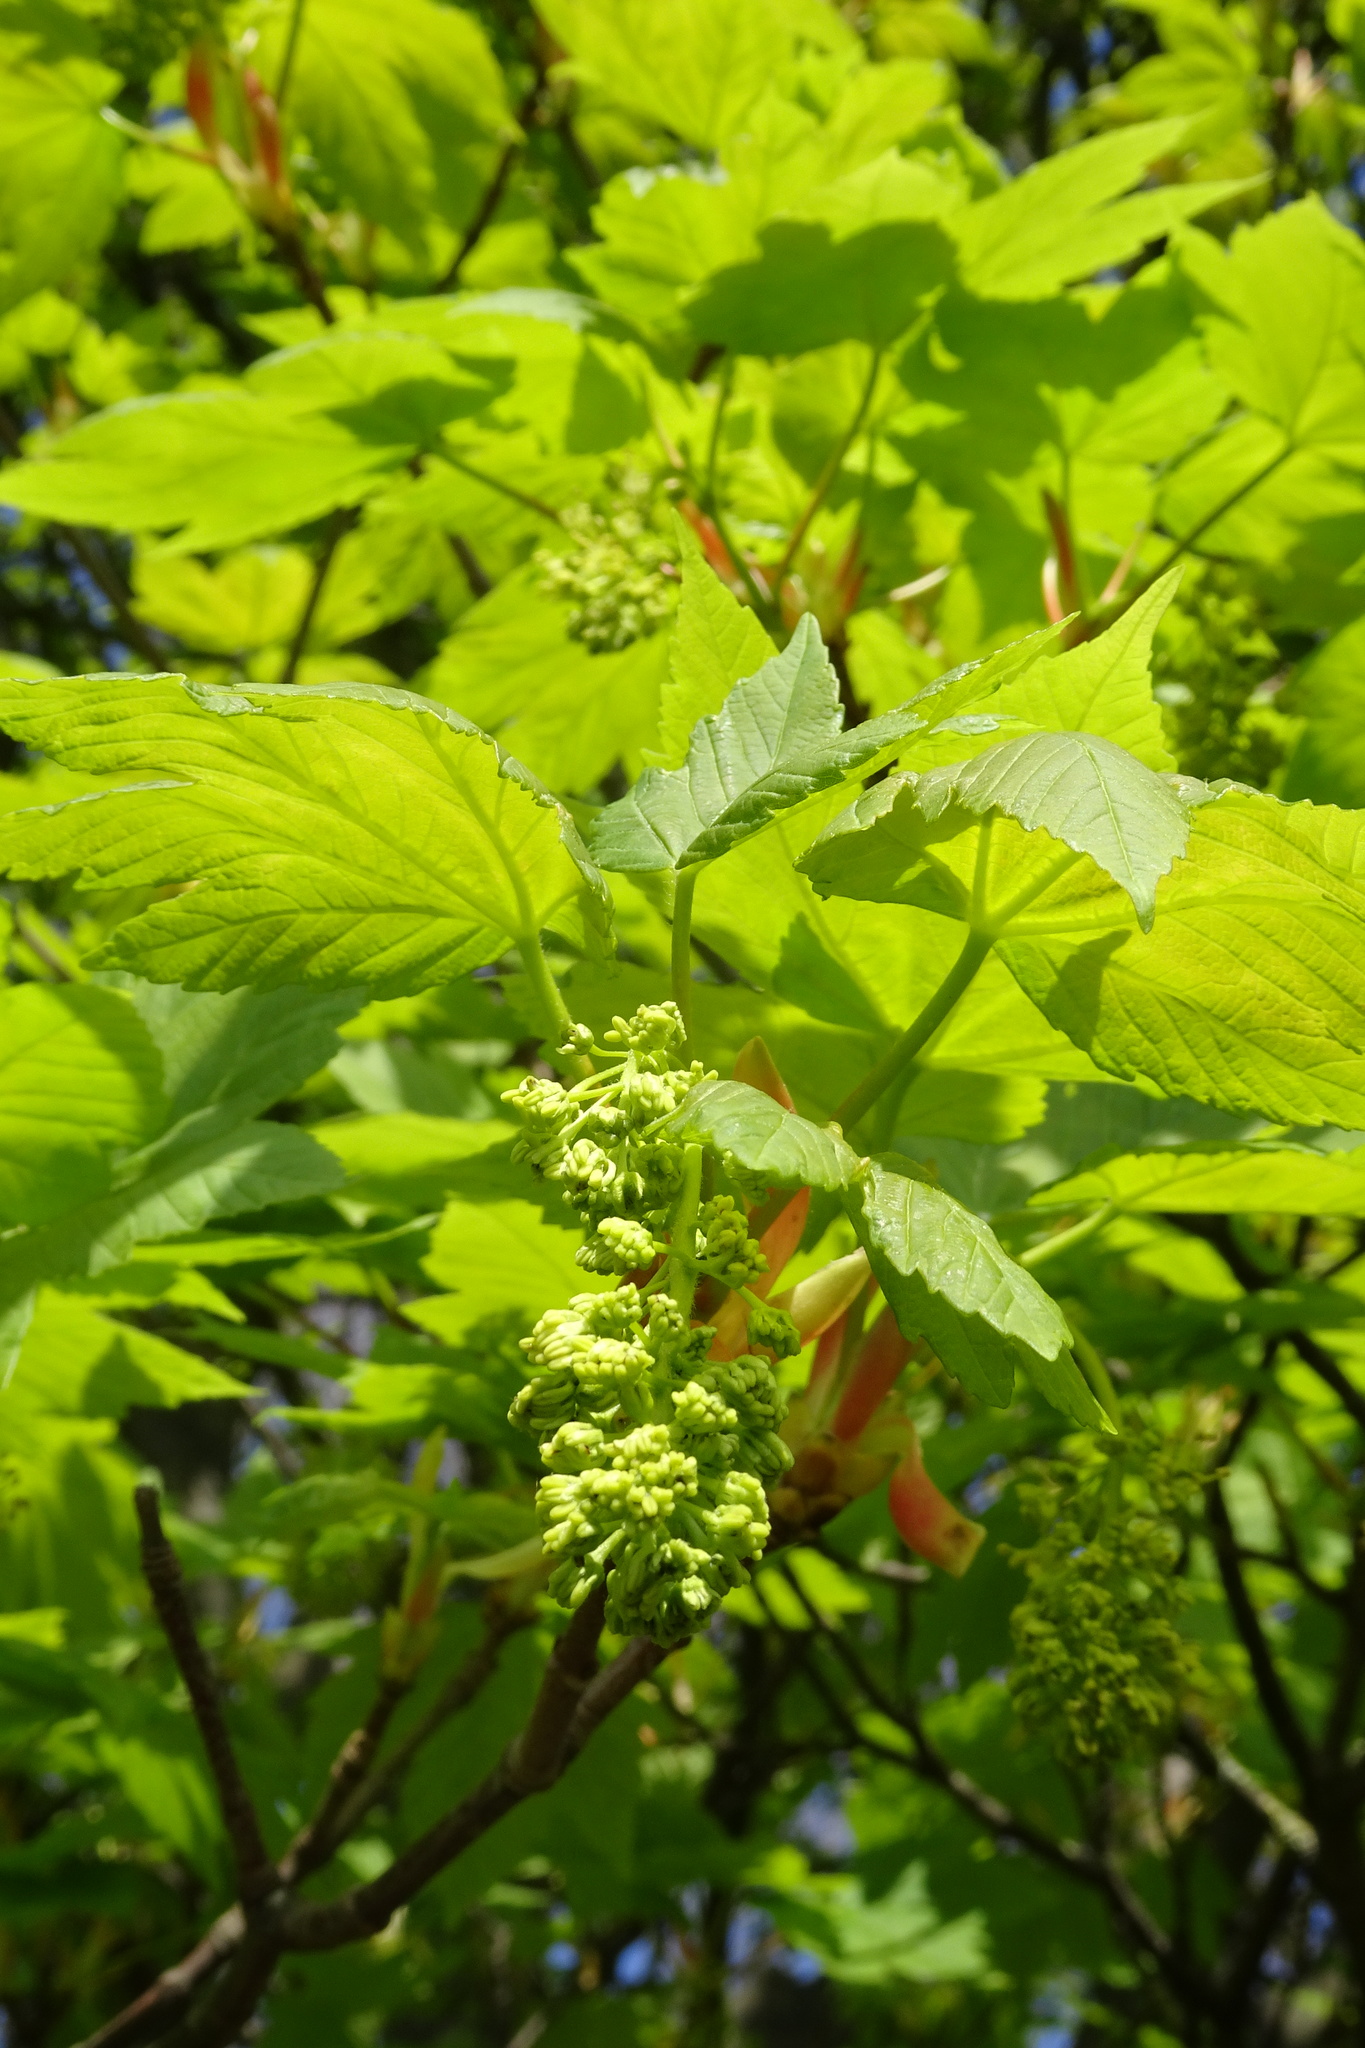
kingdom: Plantae
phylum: Tracheophyta
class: Magnoliopsida
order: Sapindales
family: Sapindaceae
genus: Acer
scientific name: Acer pseudoplatanus
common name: Sycamore
